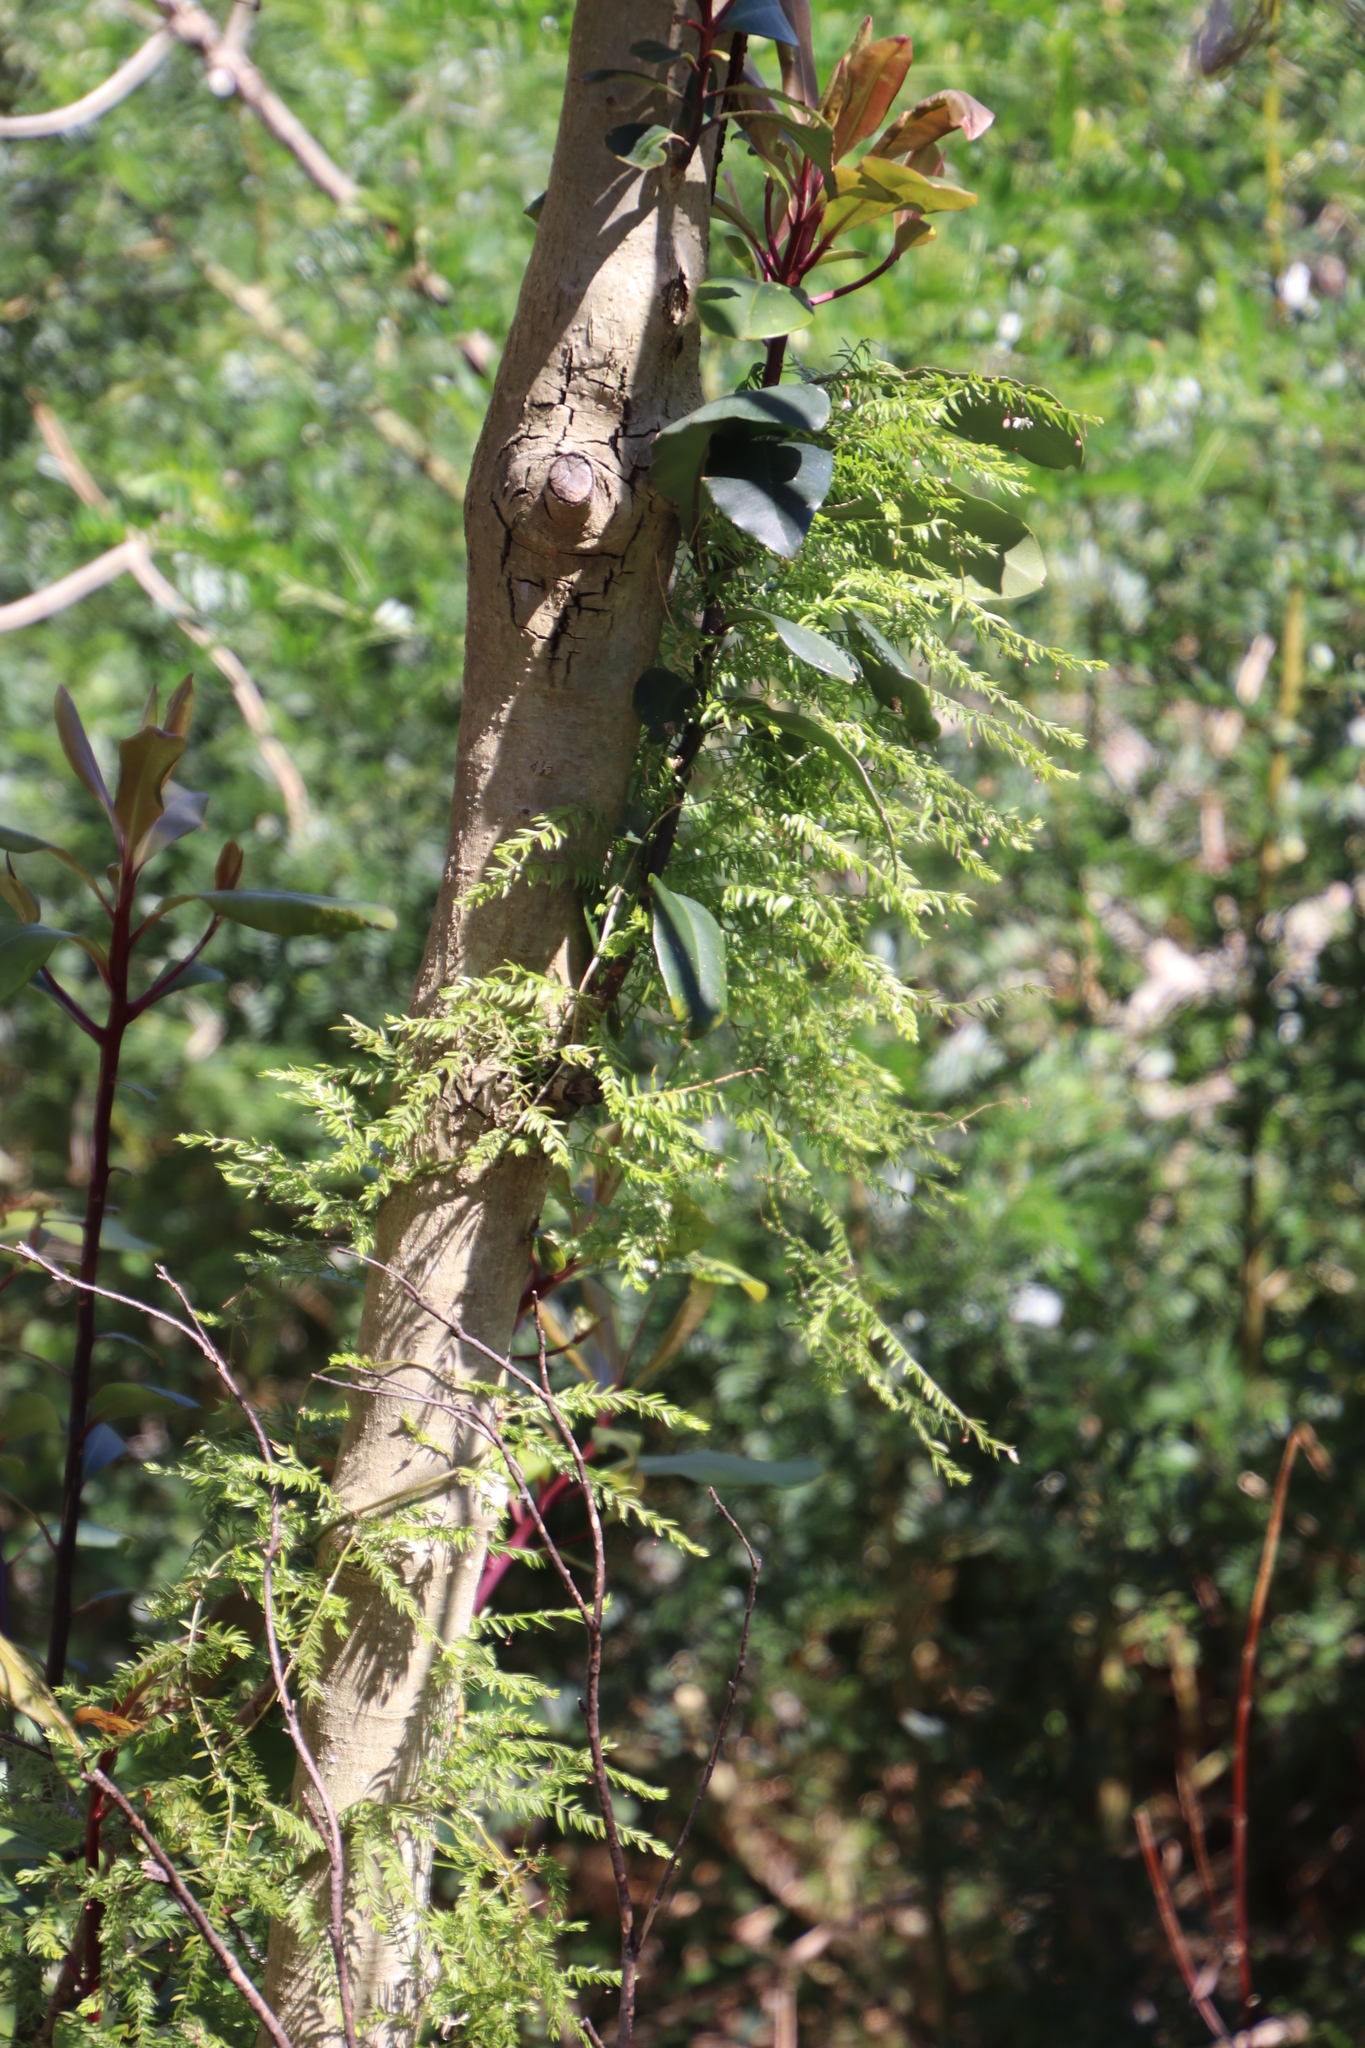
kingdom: Plantae
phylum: Tracheophyta
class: Liliopsida
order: Asparagales
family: Asparagaceae
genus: Asparagus
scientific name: Asparagus scandens
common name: Asparagus-fern
